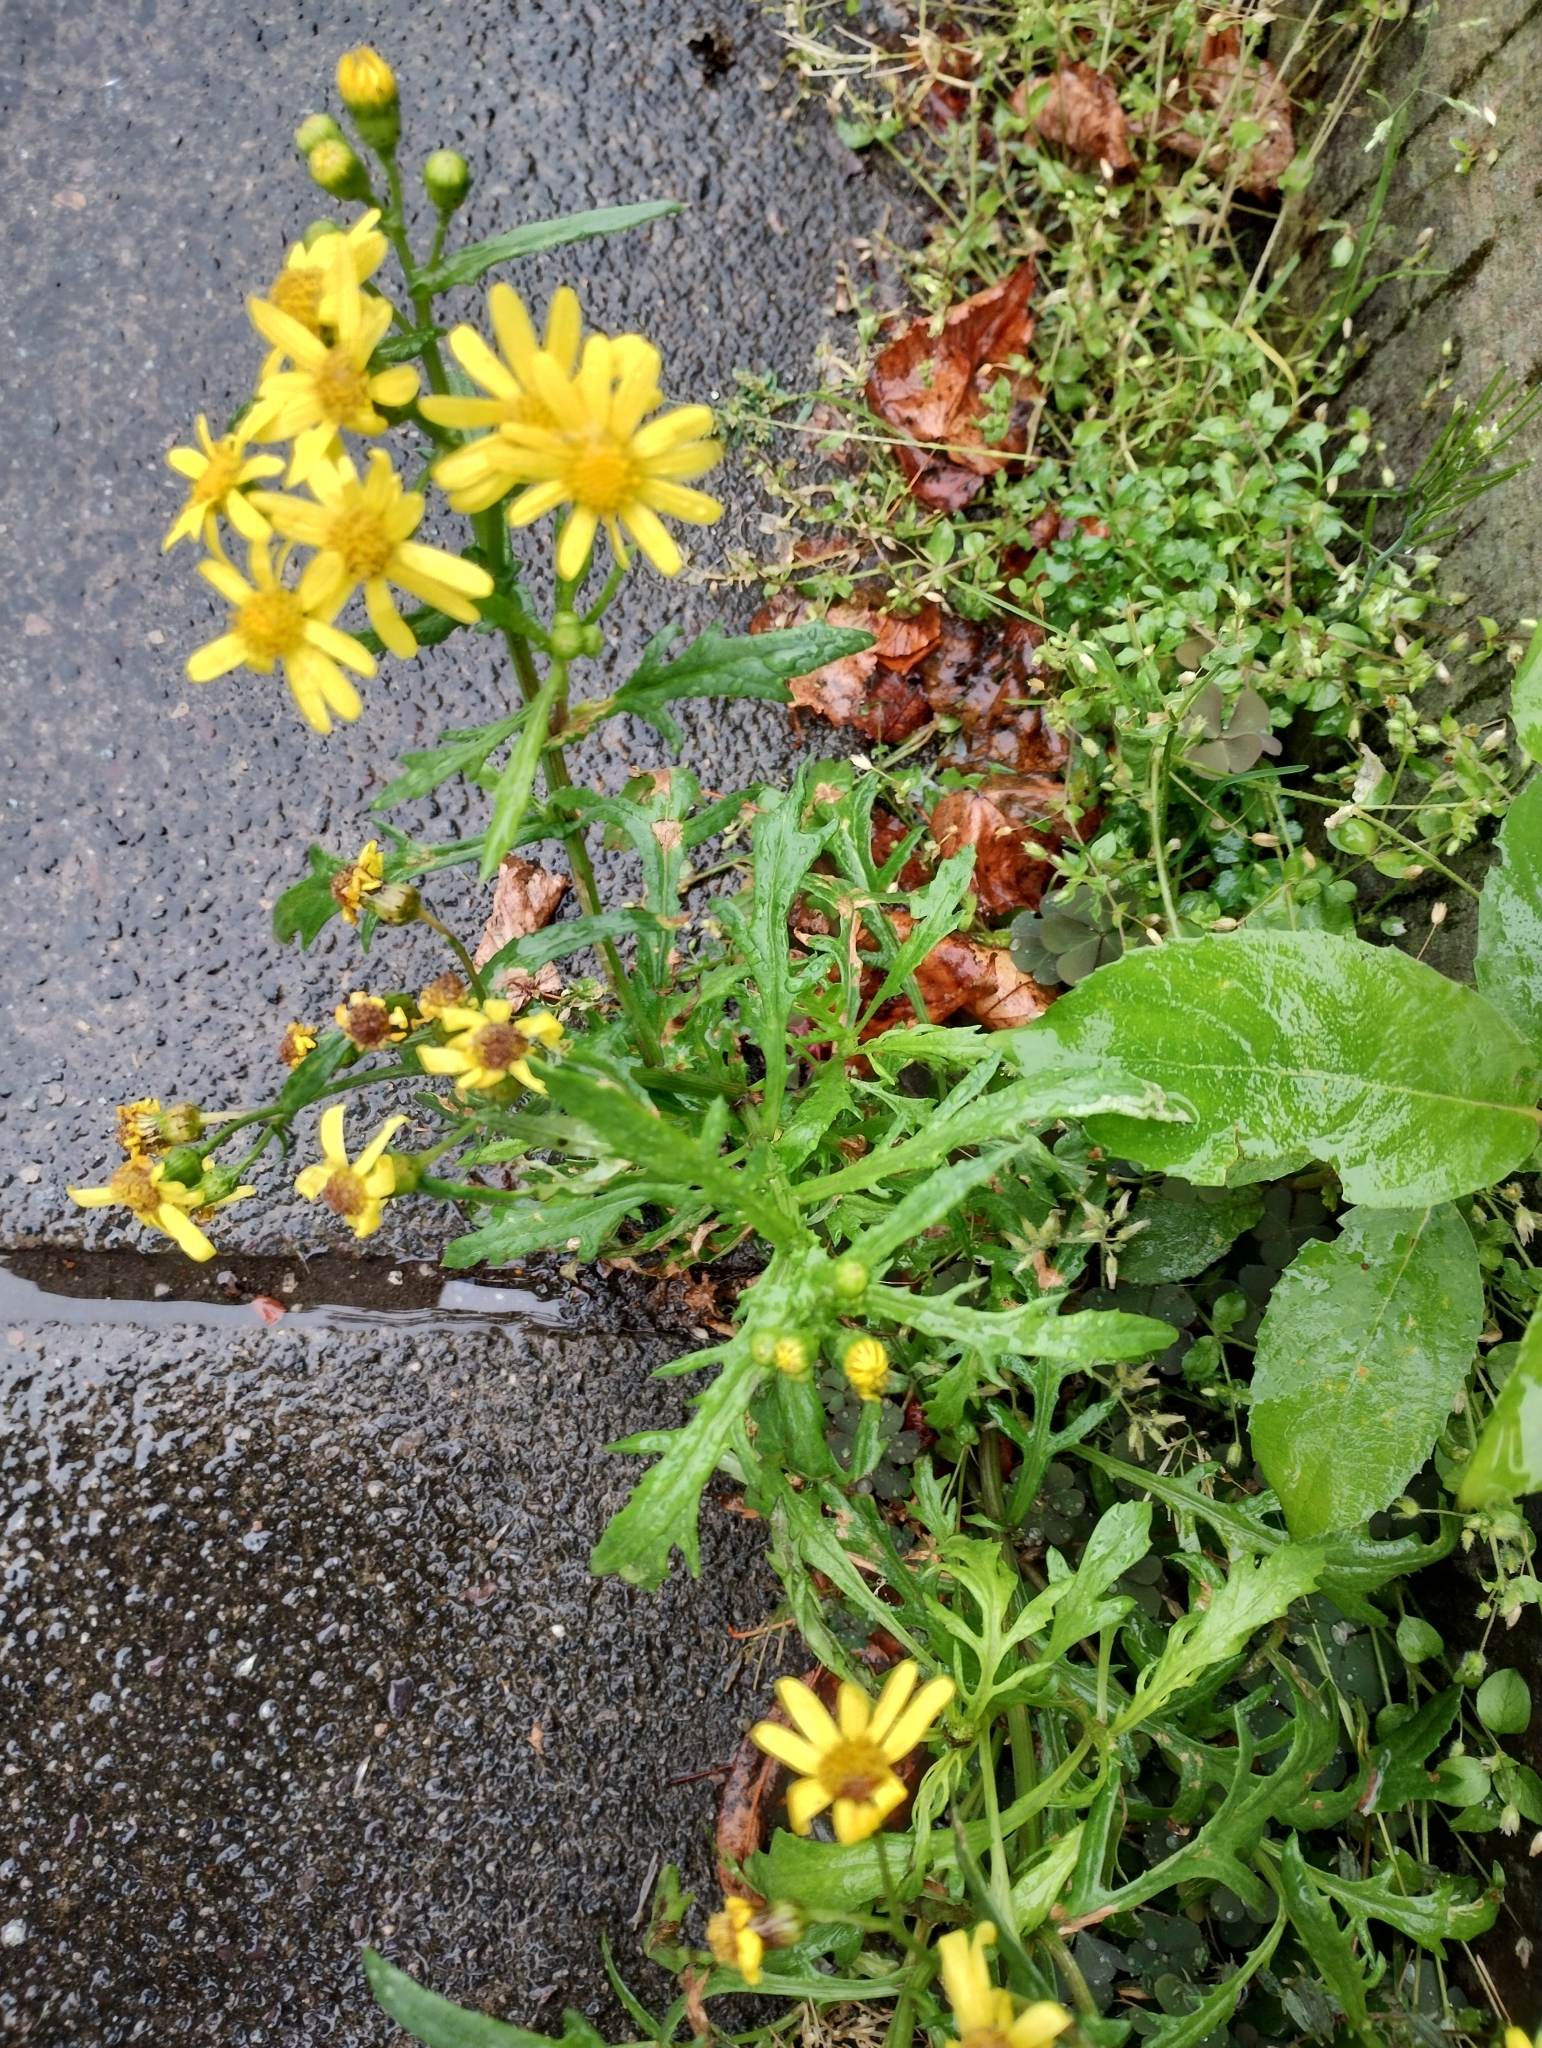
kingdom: Plantae
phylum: Tracheophyta
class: Magnoliopsida
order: Asterales
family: Asteraceae
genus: Senecio
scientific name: Senecio squalidus
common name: Oxford ragwort
